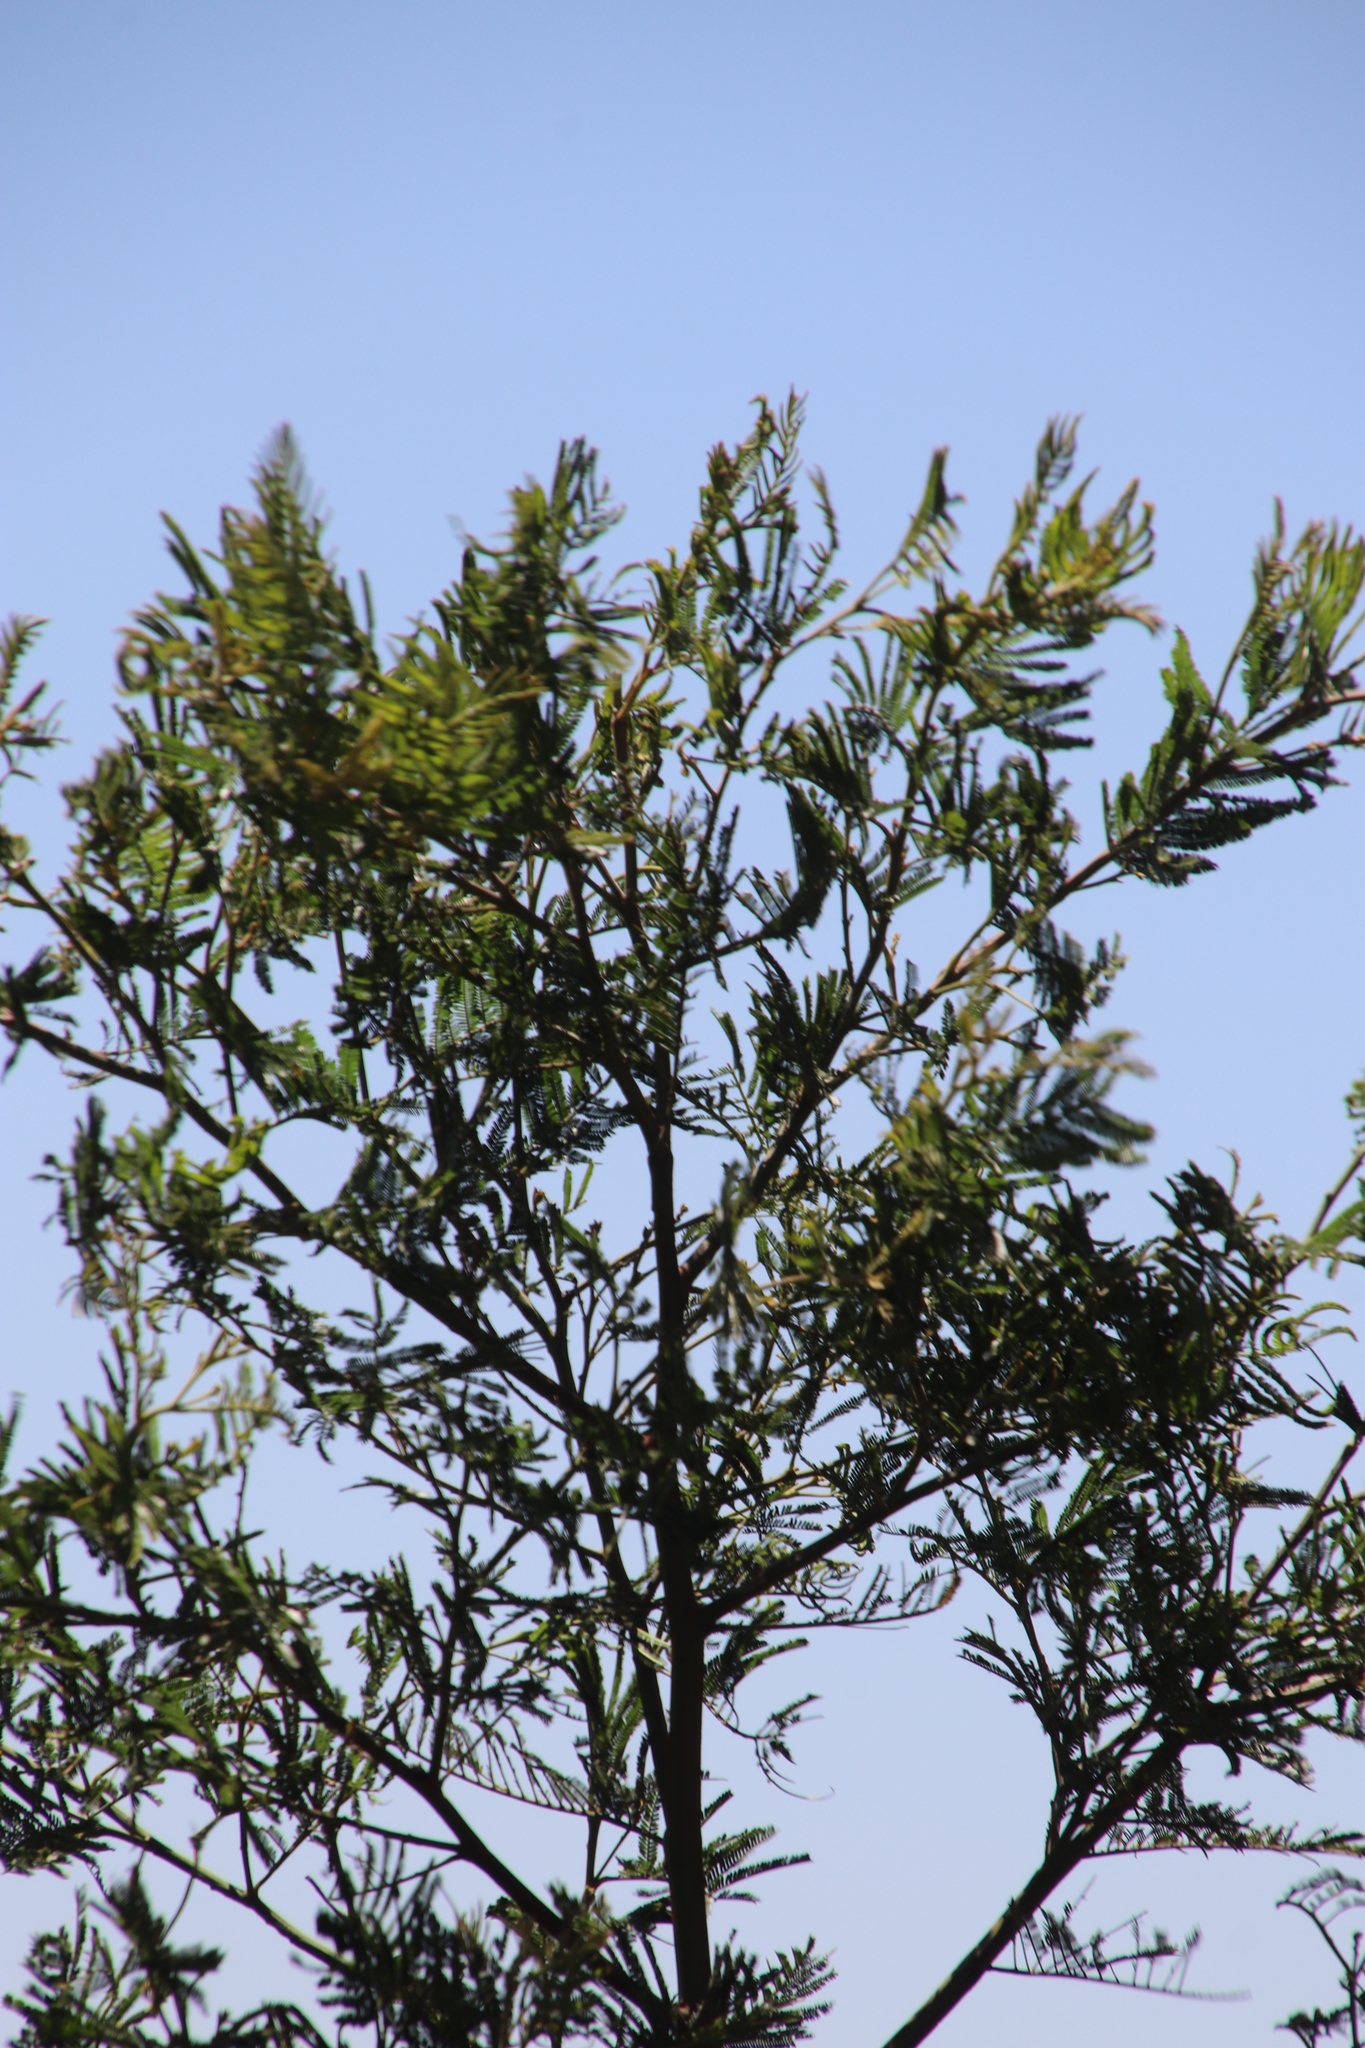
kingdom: Plantae
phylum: Tracheophyta
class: Magnoliopsida
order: Fabales
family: Fabaceae
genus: Acacia
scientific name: Acacia mearnsii
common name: Black wattle
